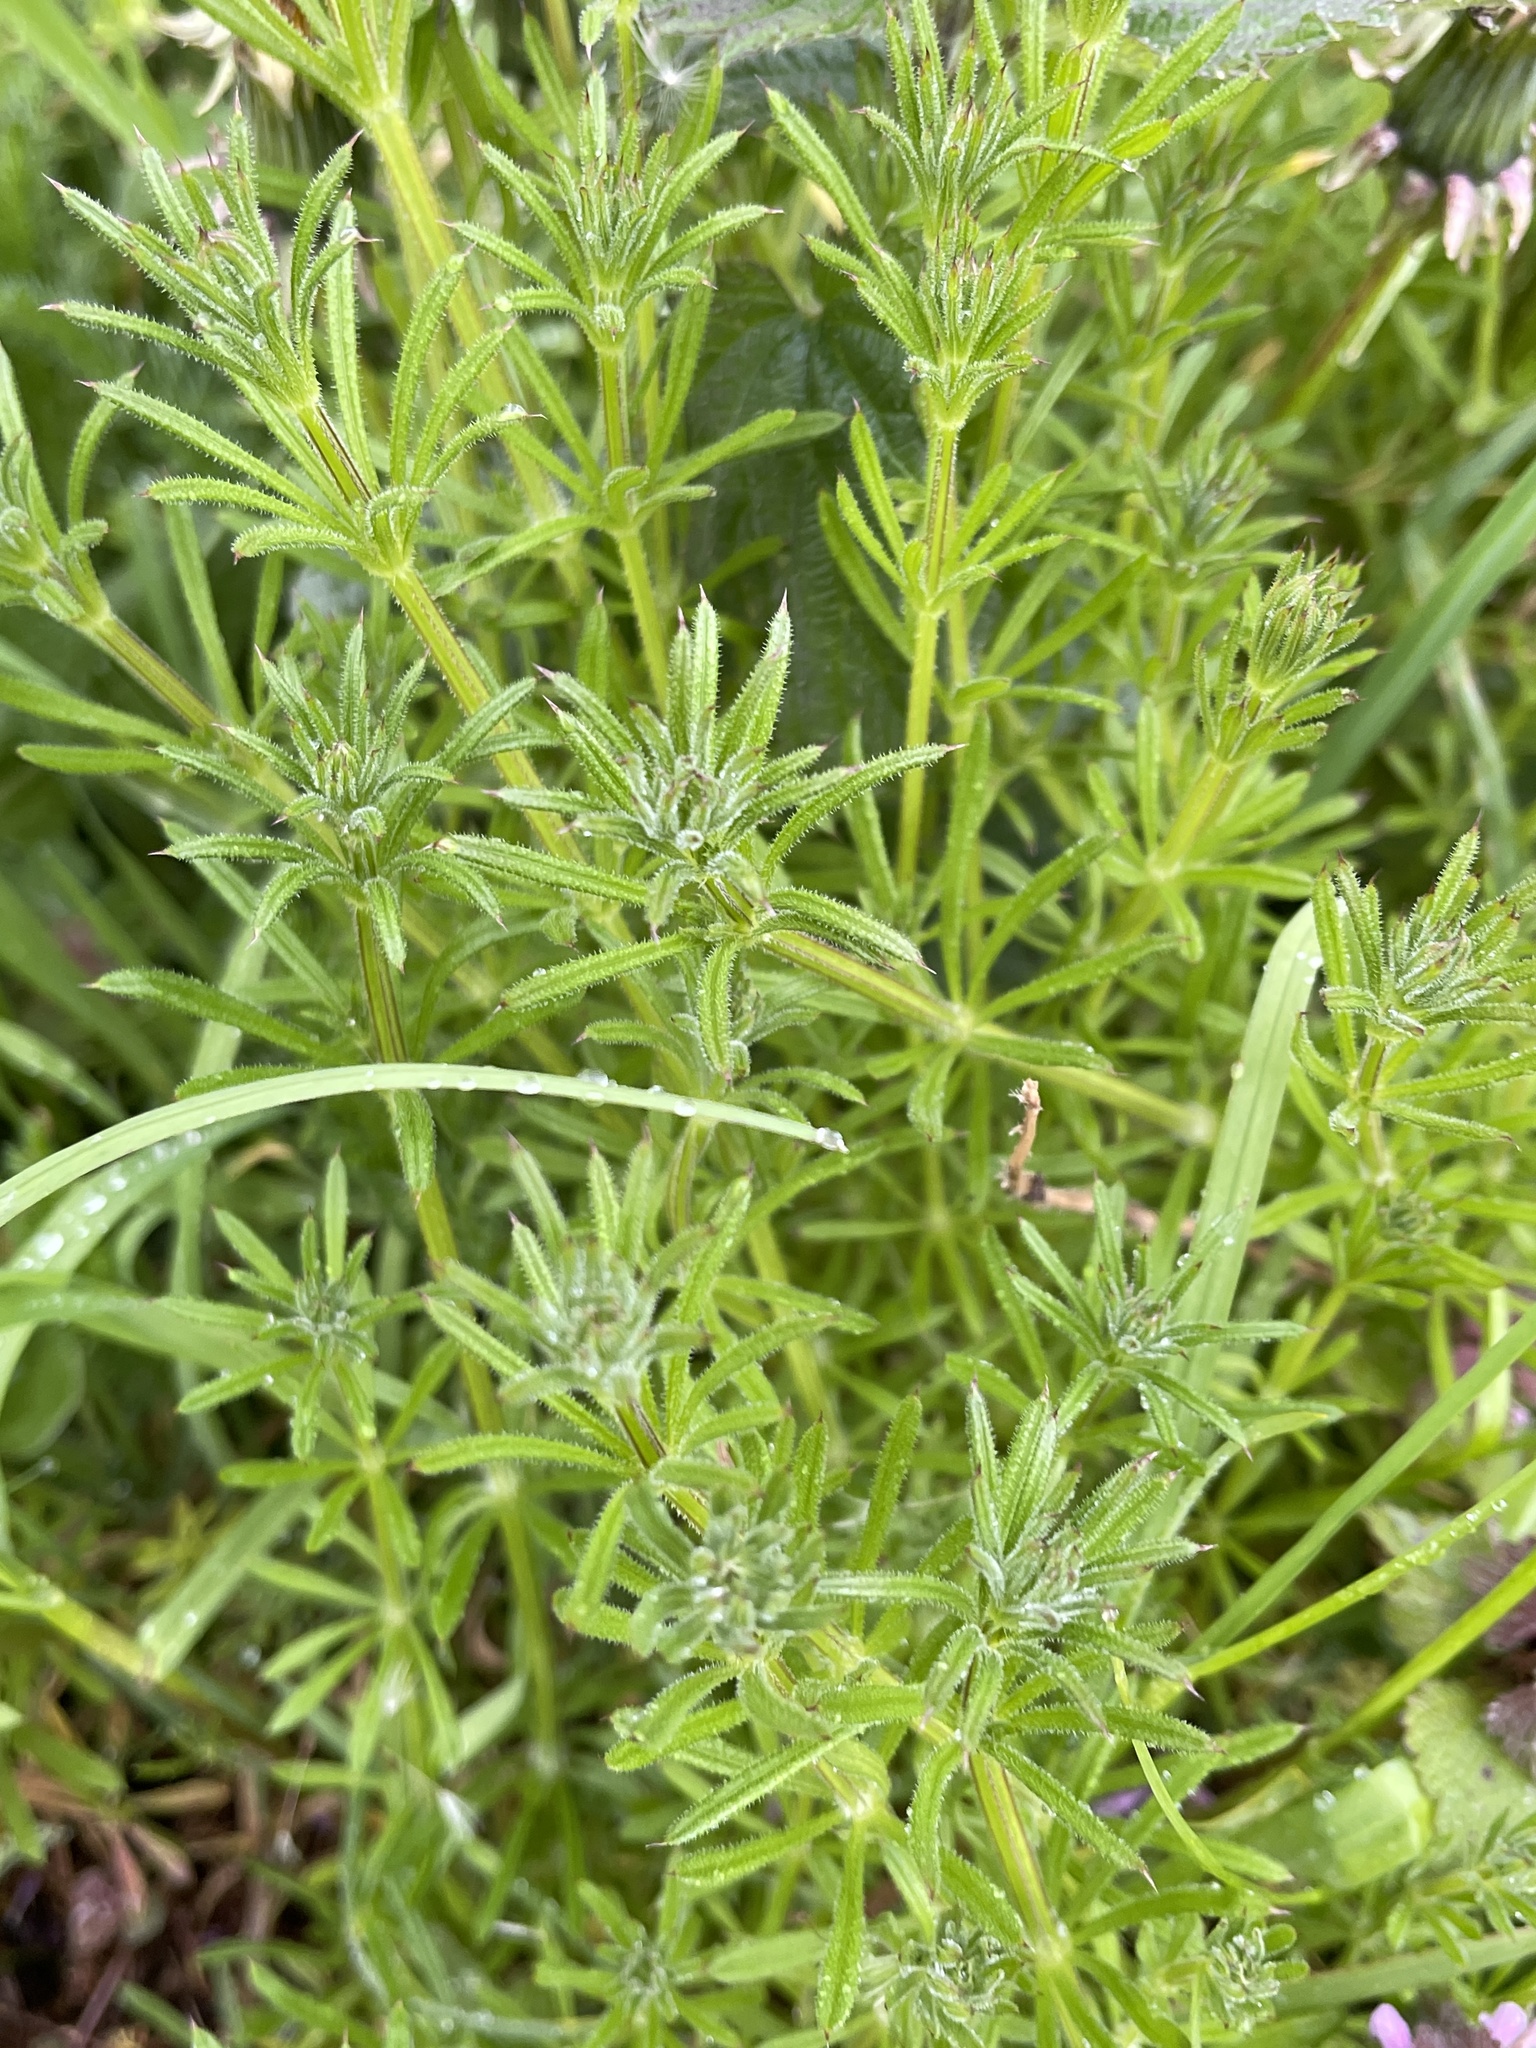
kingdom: Plantae
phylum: Tracheophyta
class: Magnoliopsida
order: Gentianales
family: Rubiaceae
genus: Galium
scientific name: Galium aparine
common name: Cleavers
